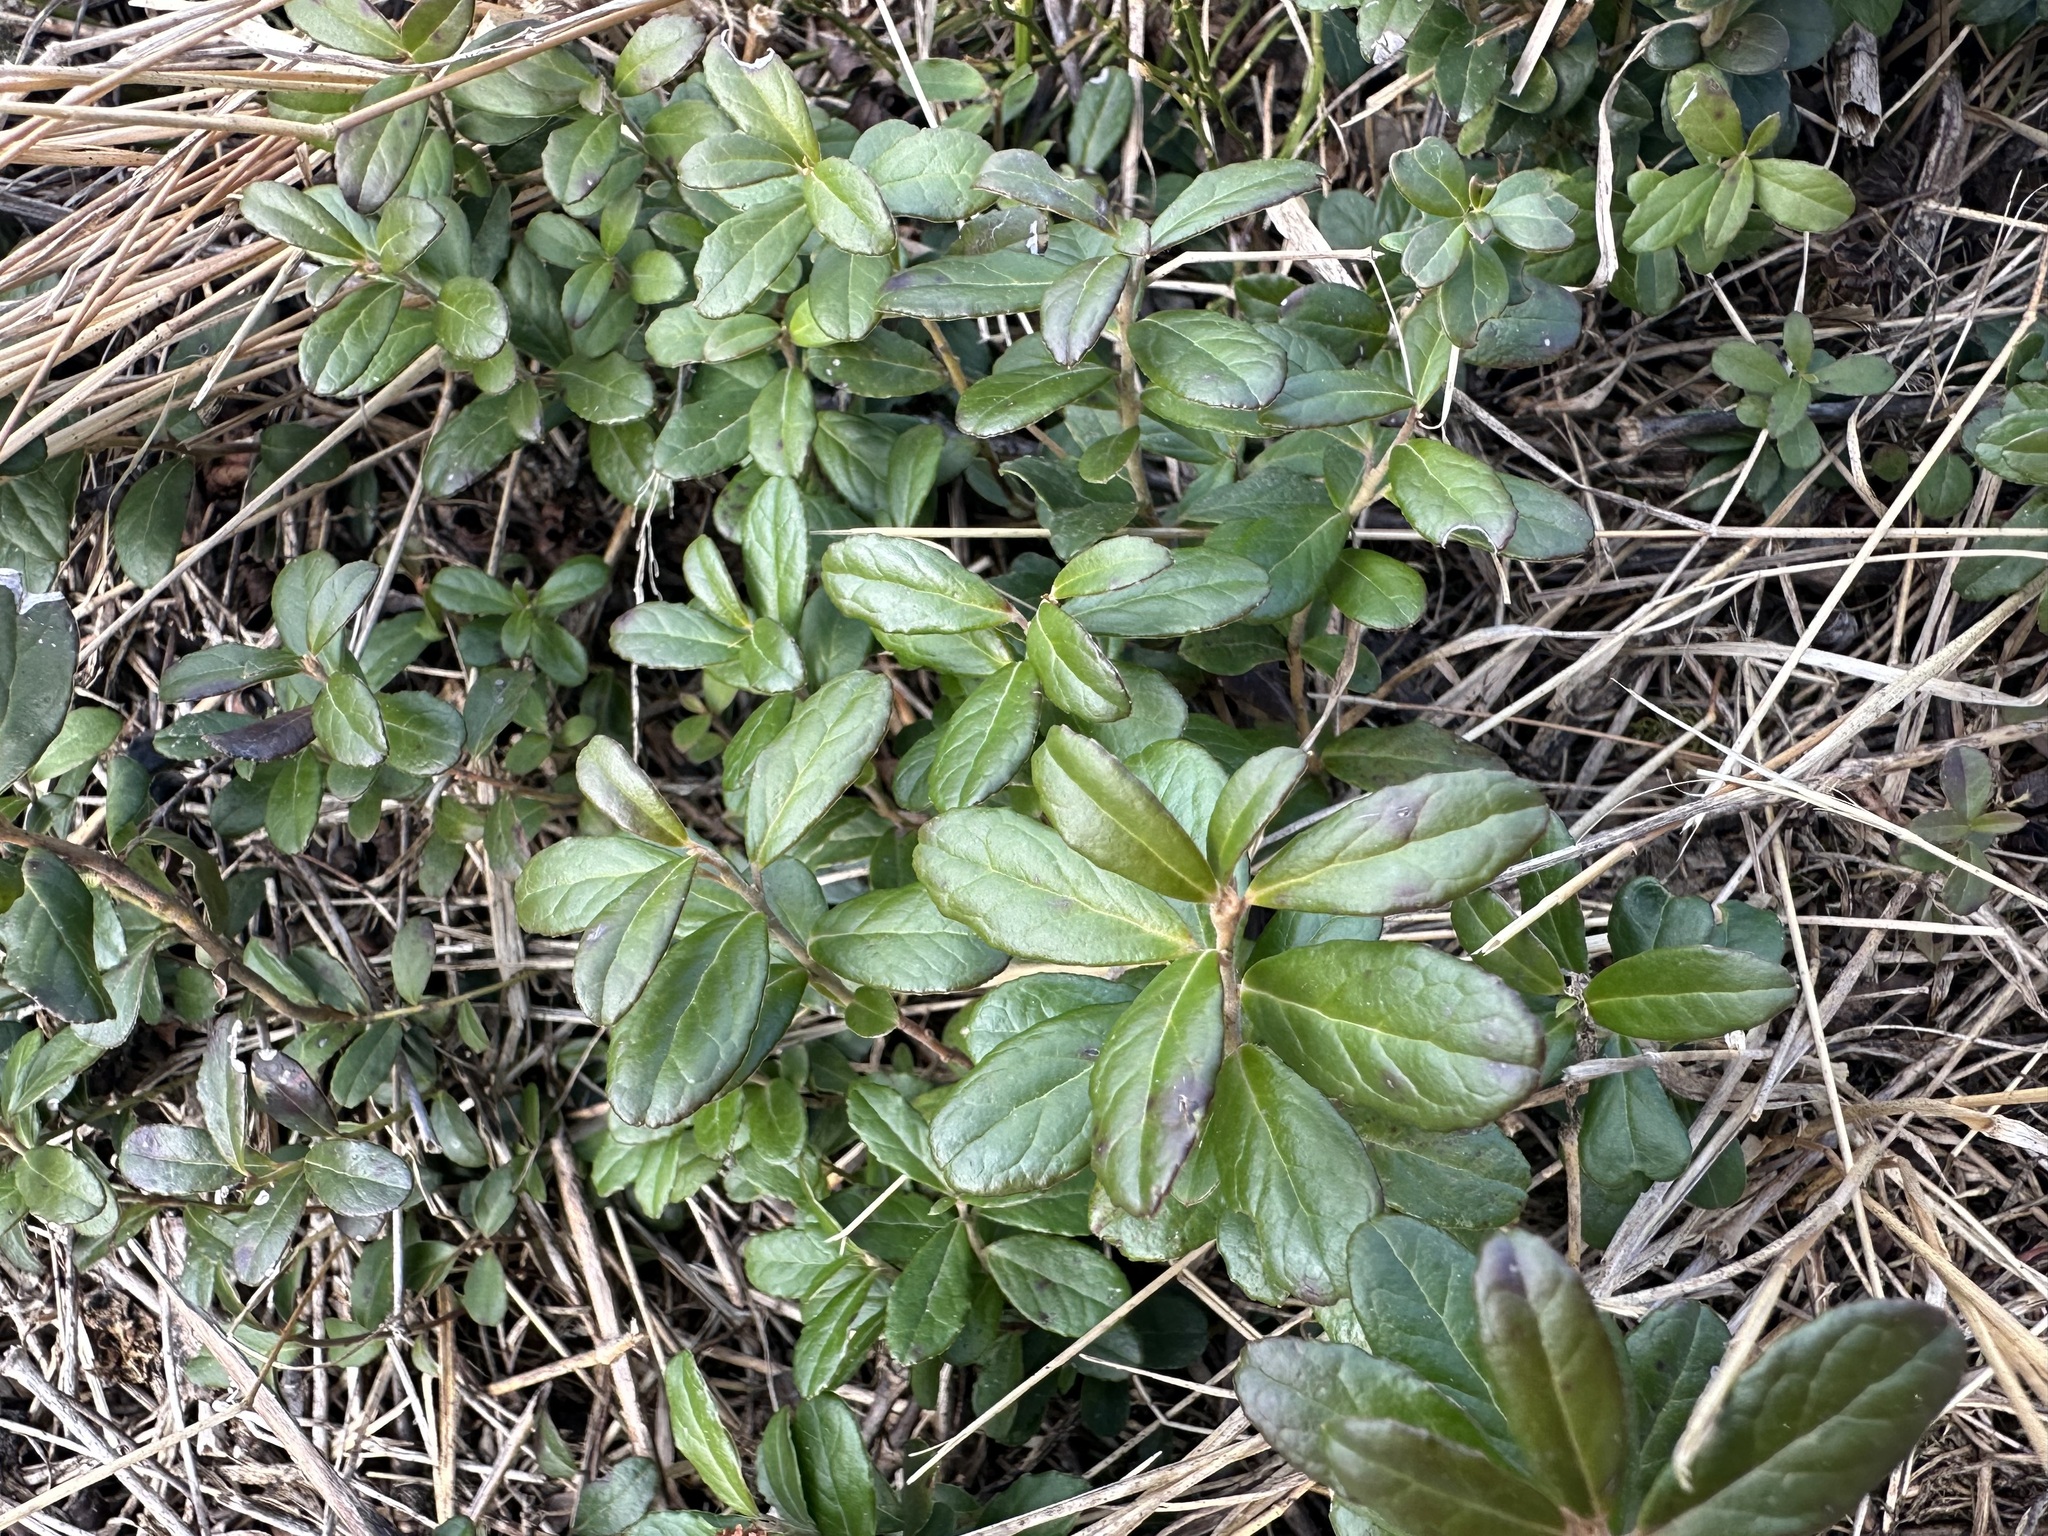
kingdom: Plantae
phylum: Tracheophyta
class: Magnoliopsida
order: Ericales
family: Ericaceae
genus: Vaccinium
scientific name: Vaccinium vitis-idaea
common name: Cowberry
